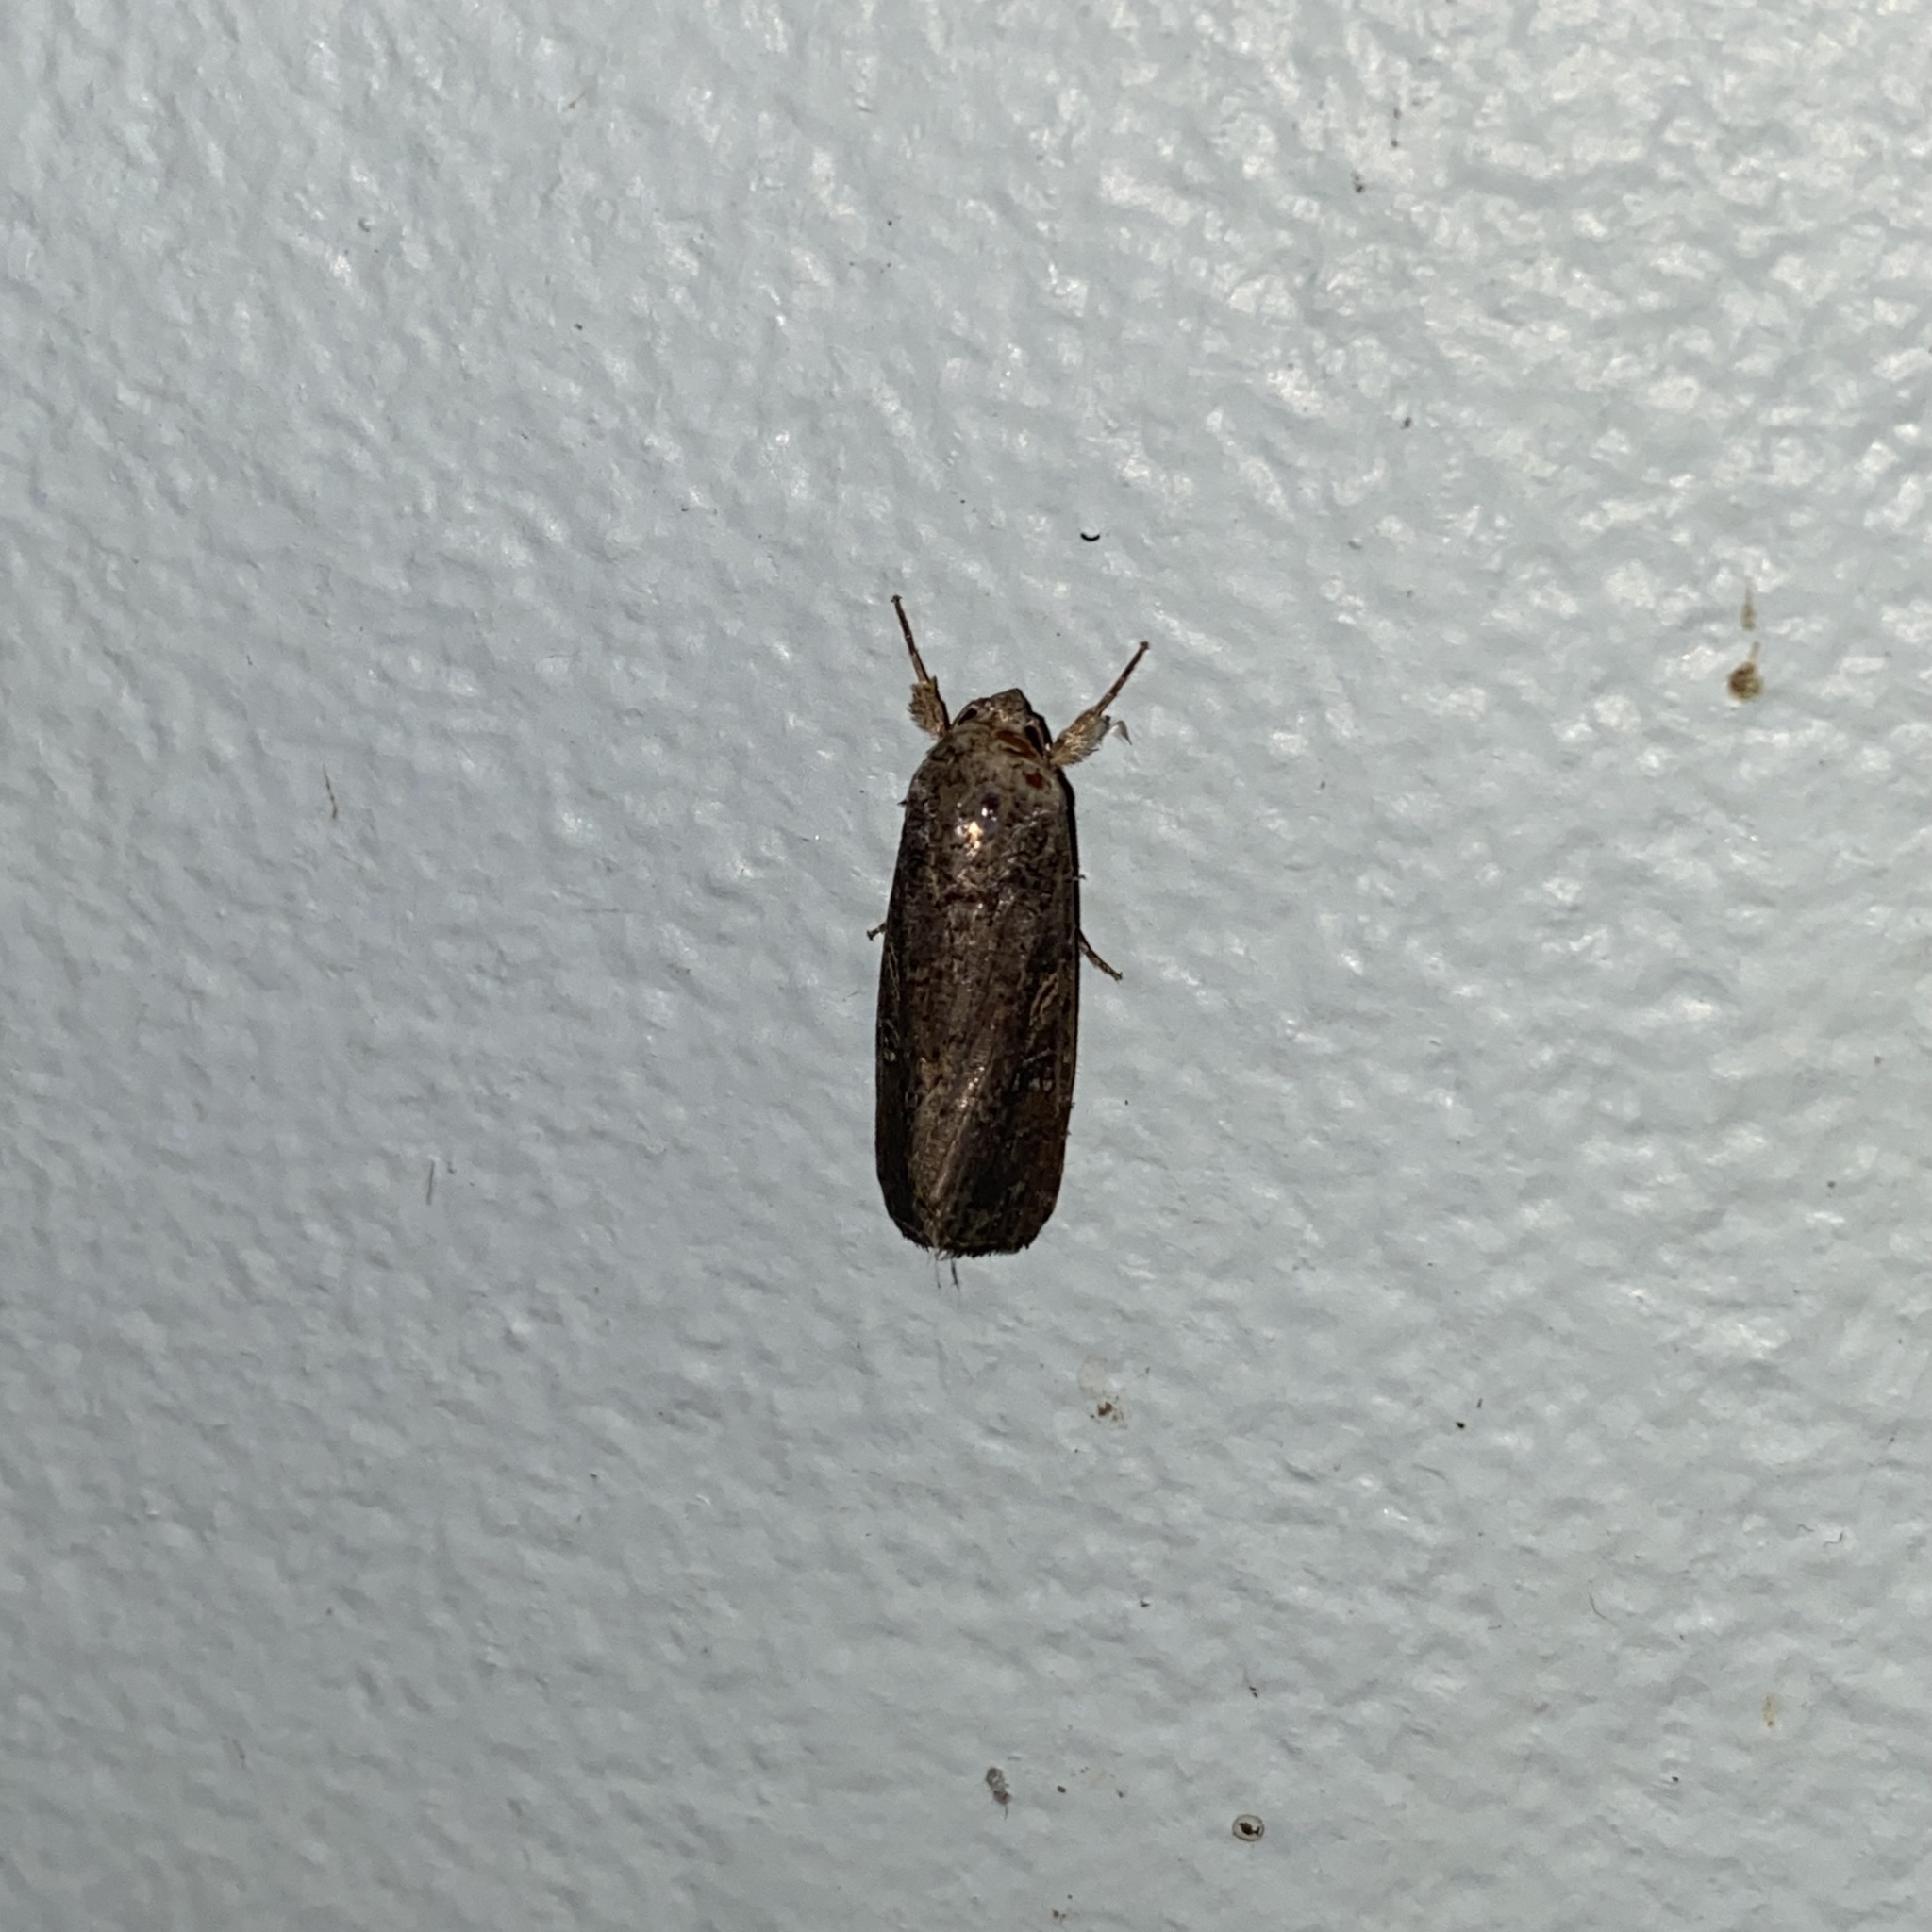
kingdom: Animalia
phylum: Arthropoda
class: Insecta
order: Lepidoptera
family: Noctuidae
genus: Spodoptera
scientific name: Spodoptera frugiperda
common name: Fall armyworm
